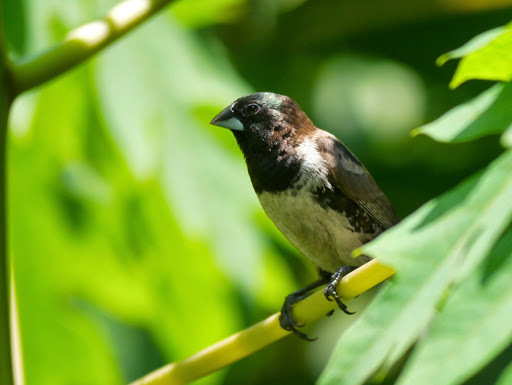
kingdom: Animalia
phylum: Chordata
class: Aves
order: Passeriformes
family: Estrildidae
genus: Lonchura
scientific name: Lonchura cucullata
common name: Bronze mannikin
